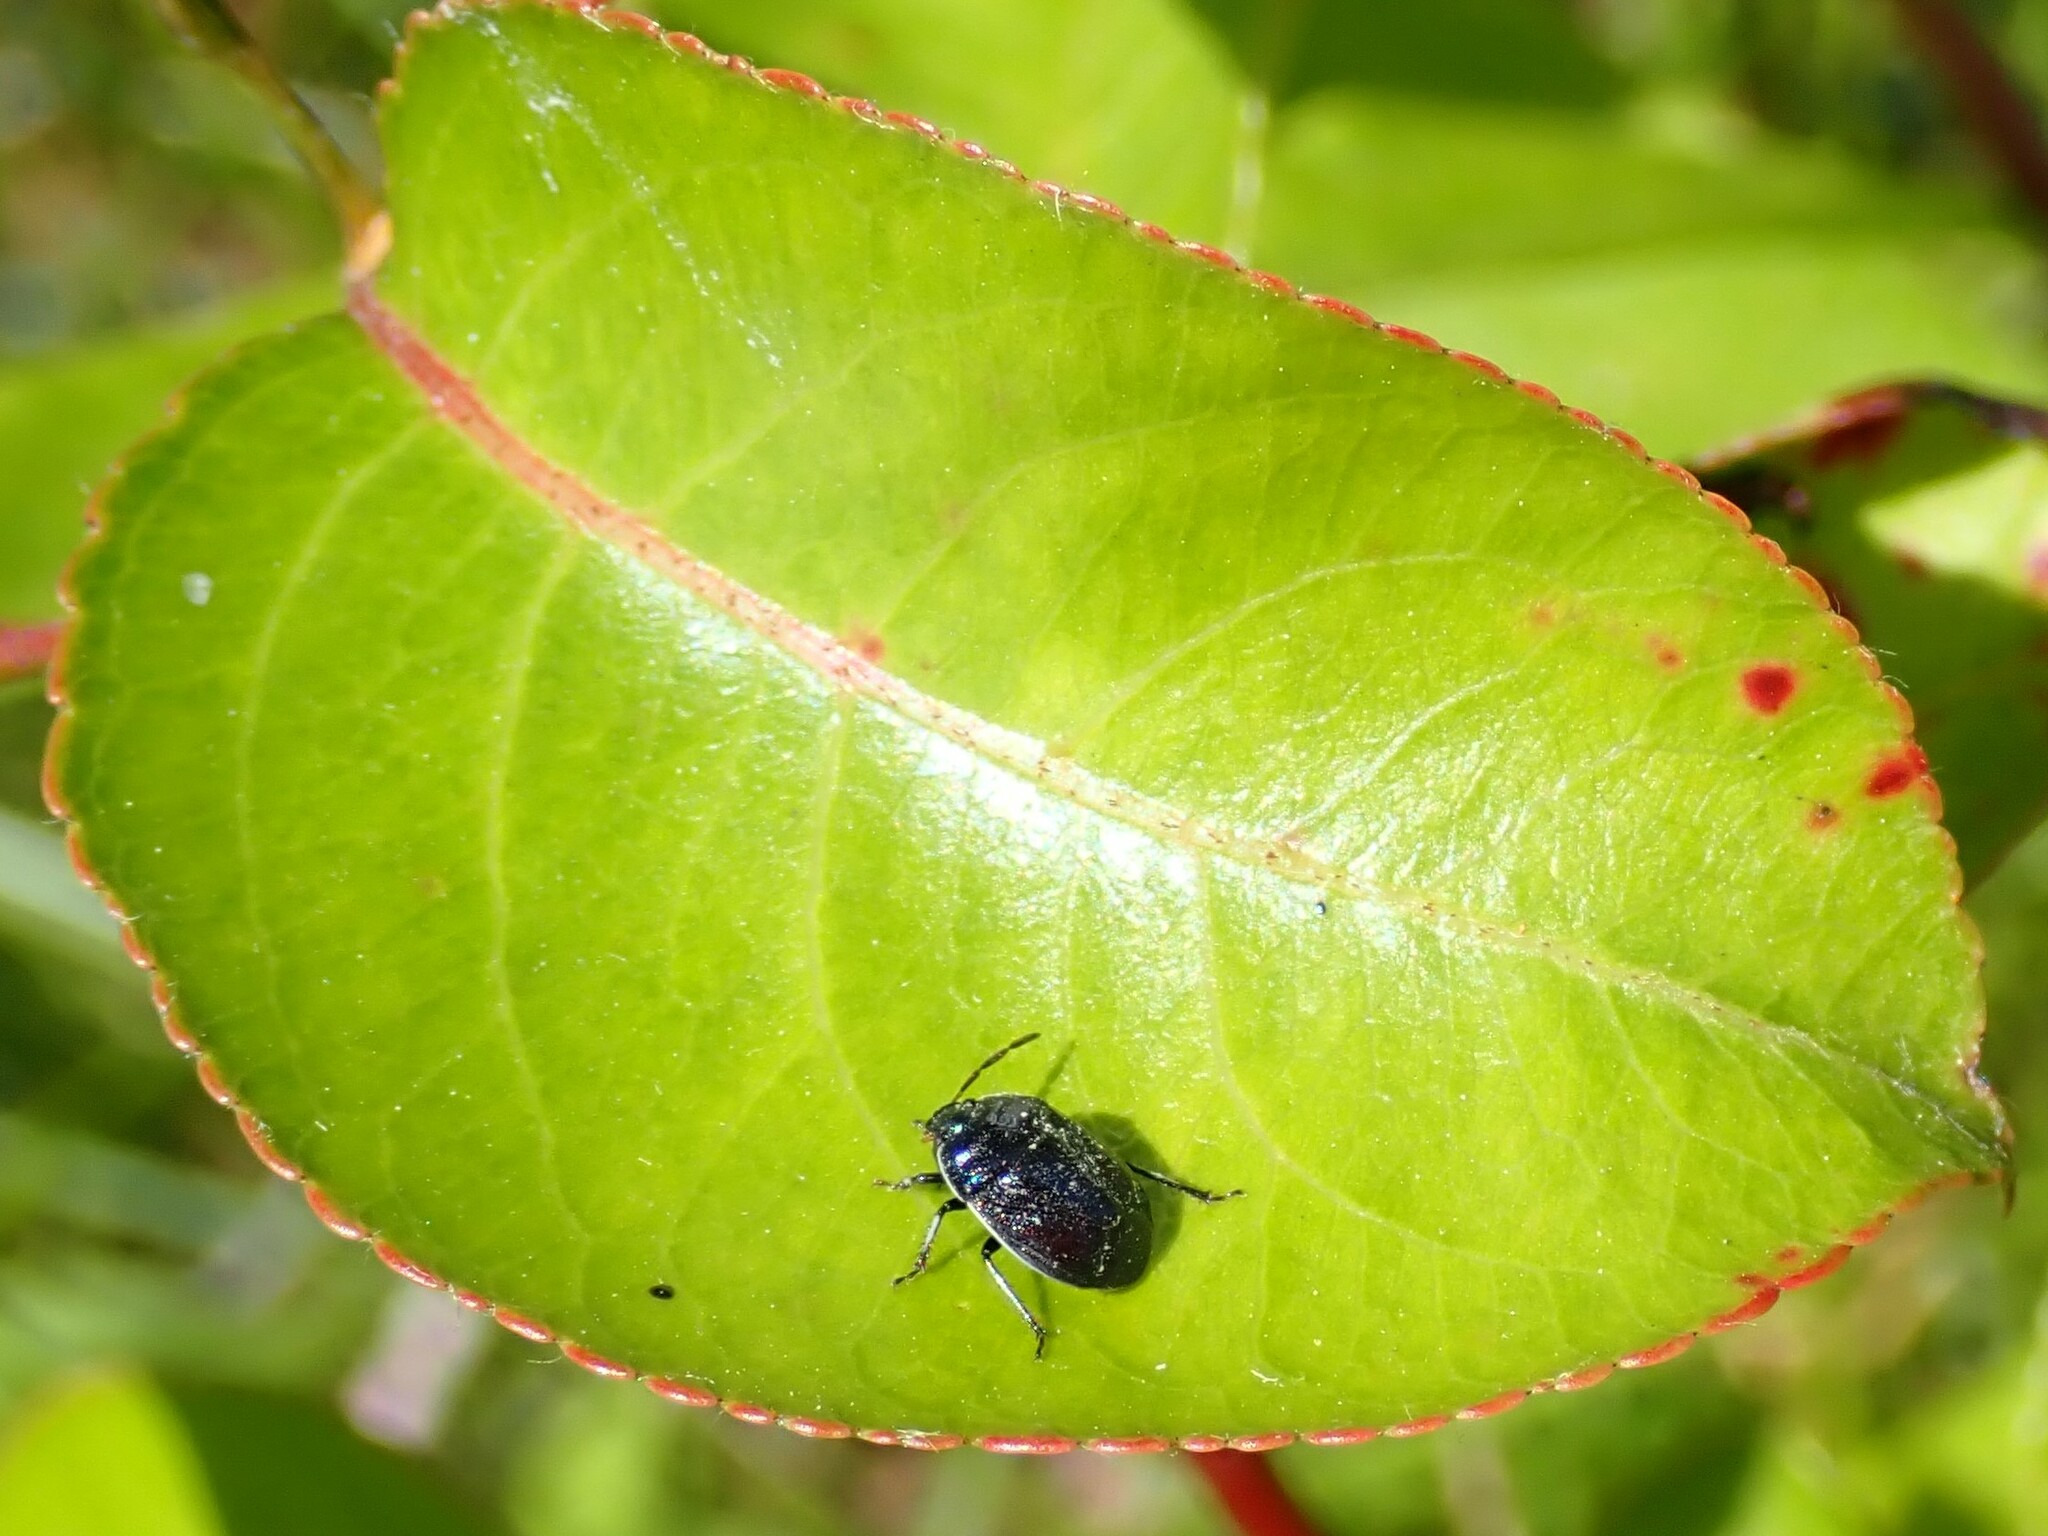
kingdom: Animalia
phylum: Arthropoda
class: Insecta
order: Hemiptera
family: Cydnidae
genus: Sehirus
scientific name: Sehirus cinctus
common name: White-margined burrower bug
